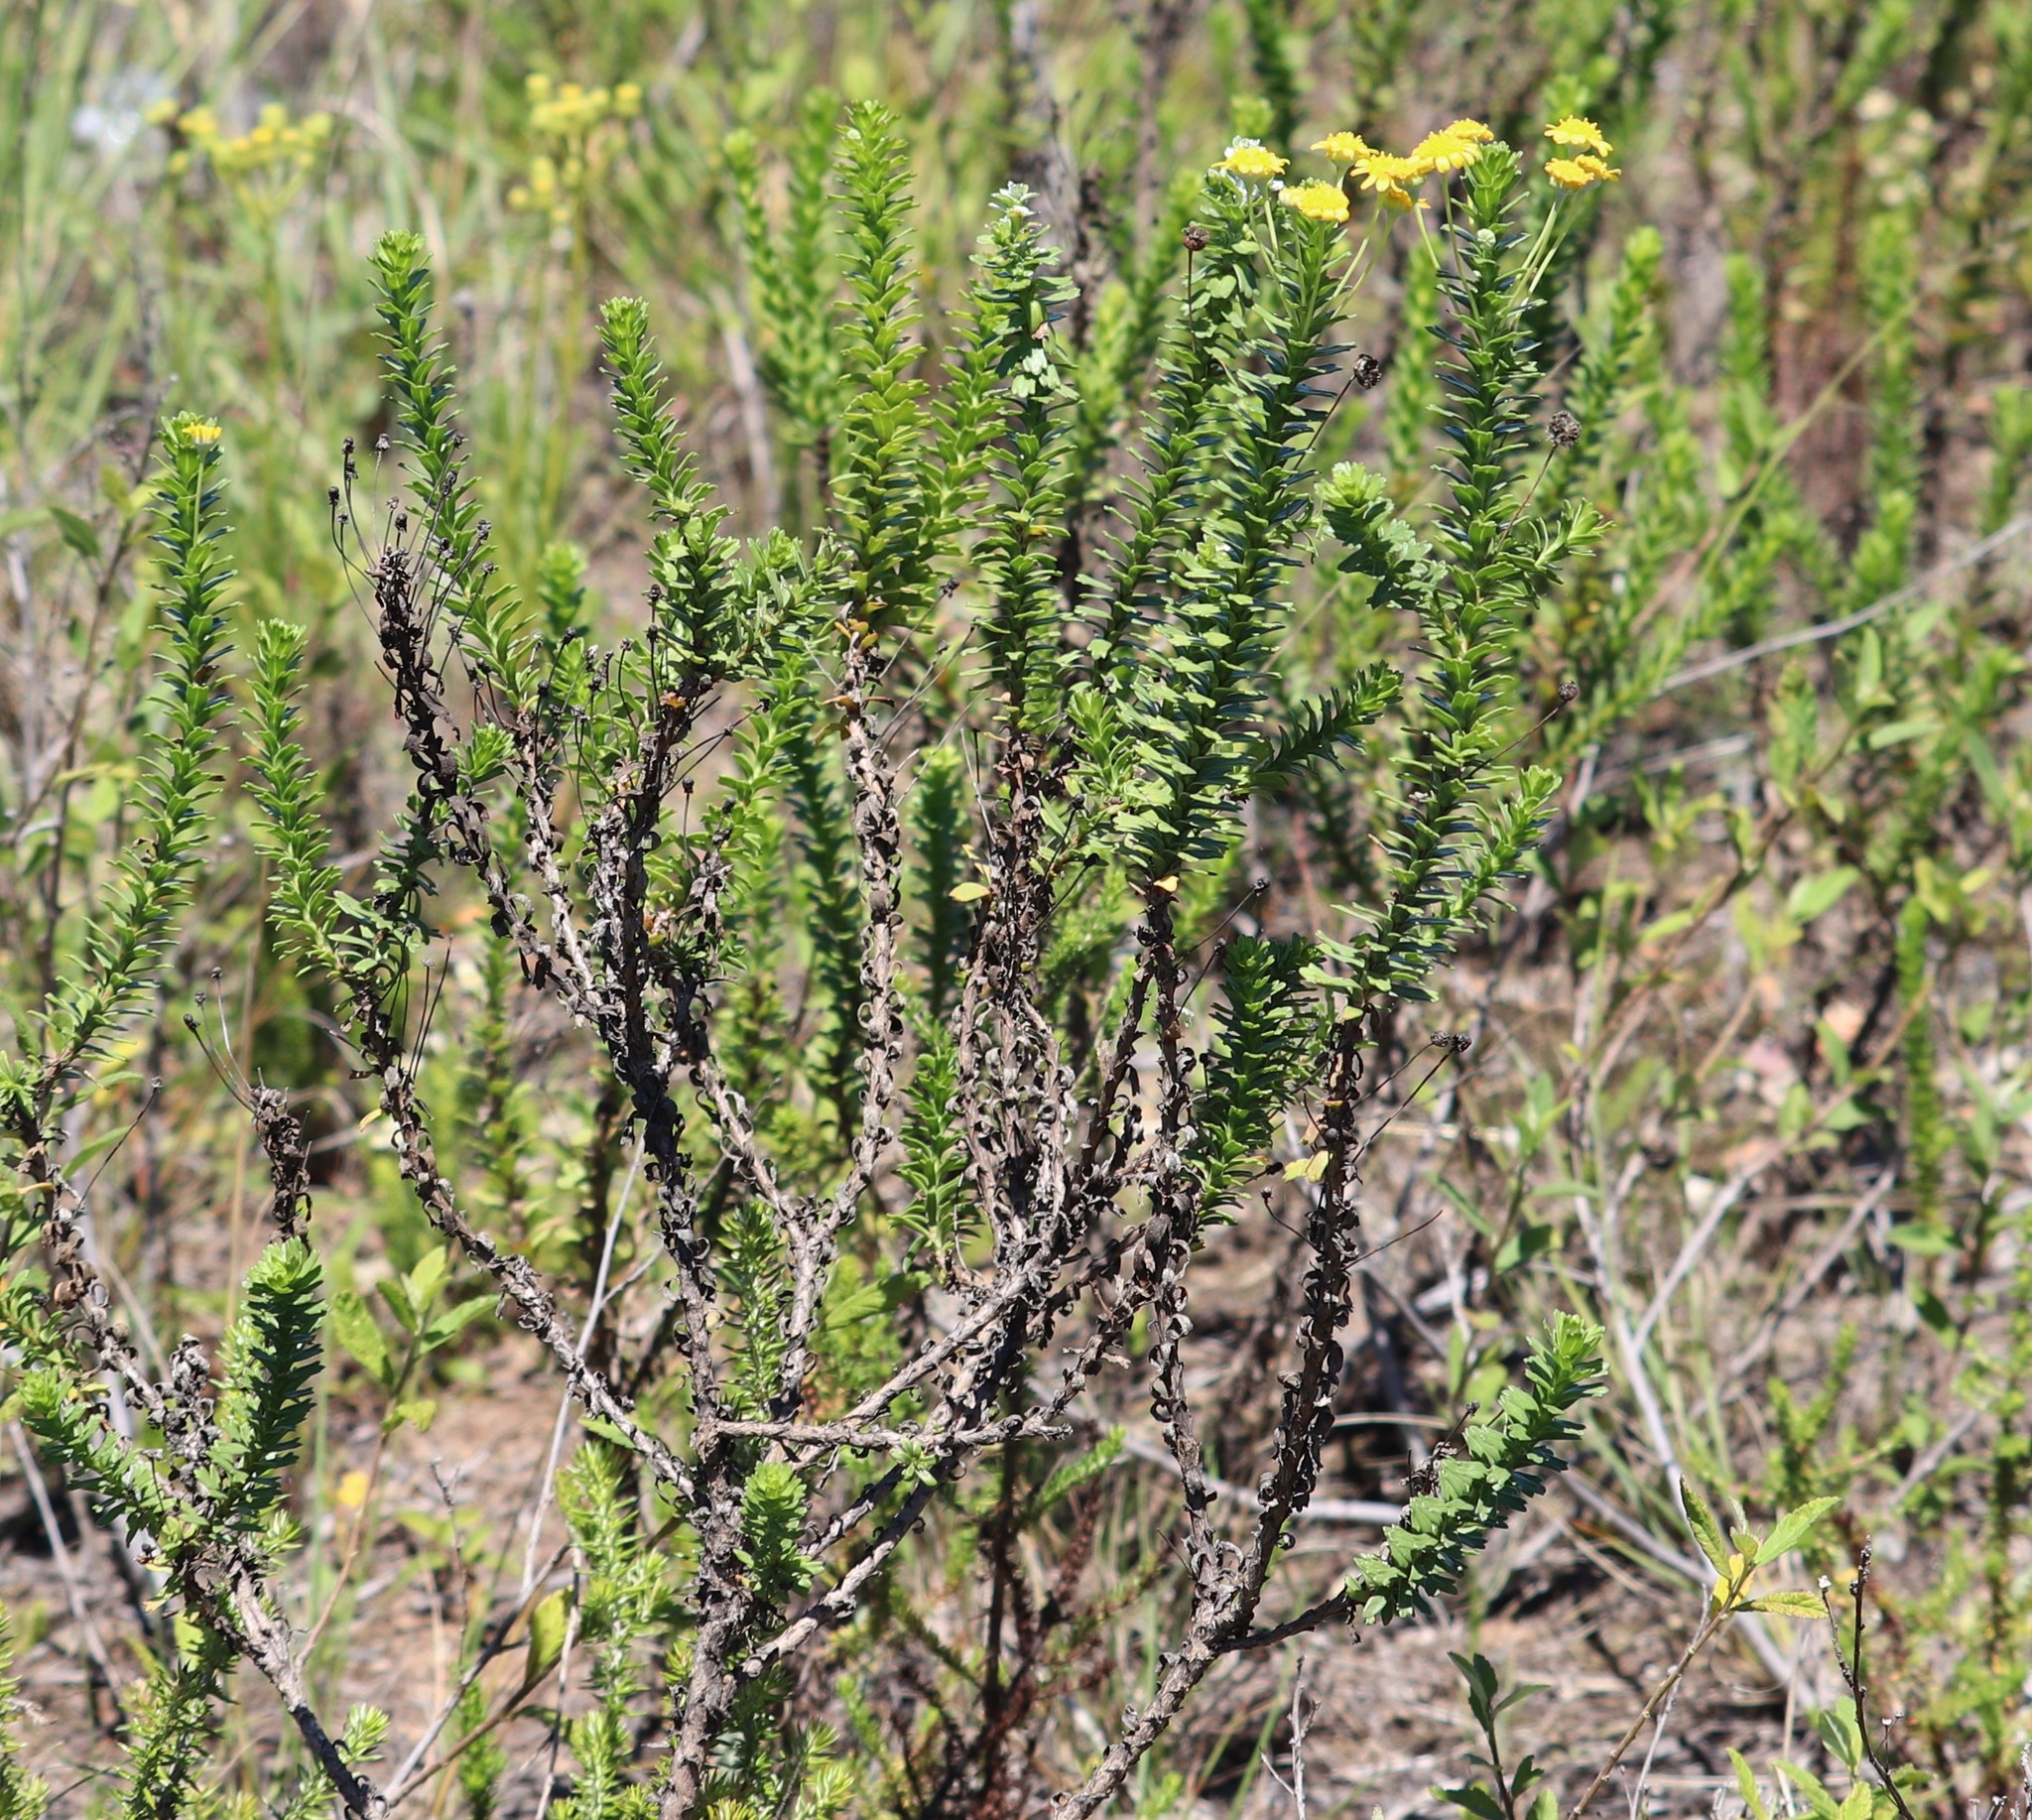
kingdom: Plantae
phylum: Tracheophyta
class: Magnoliopsida
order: Asterales
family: Asteraceae
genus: Euryops
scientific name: Euryops algoensis
